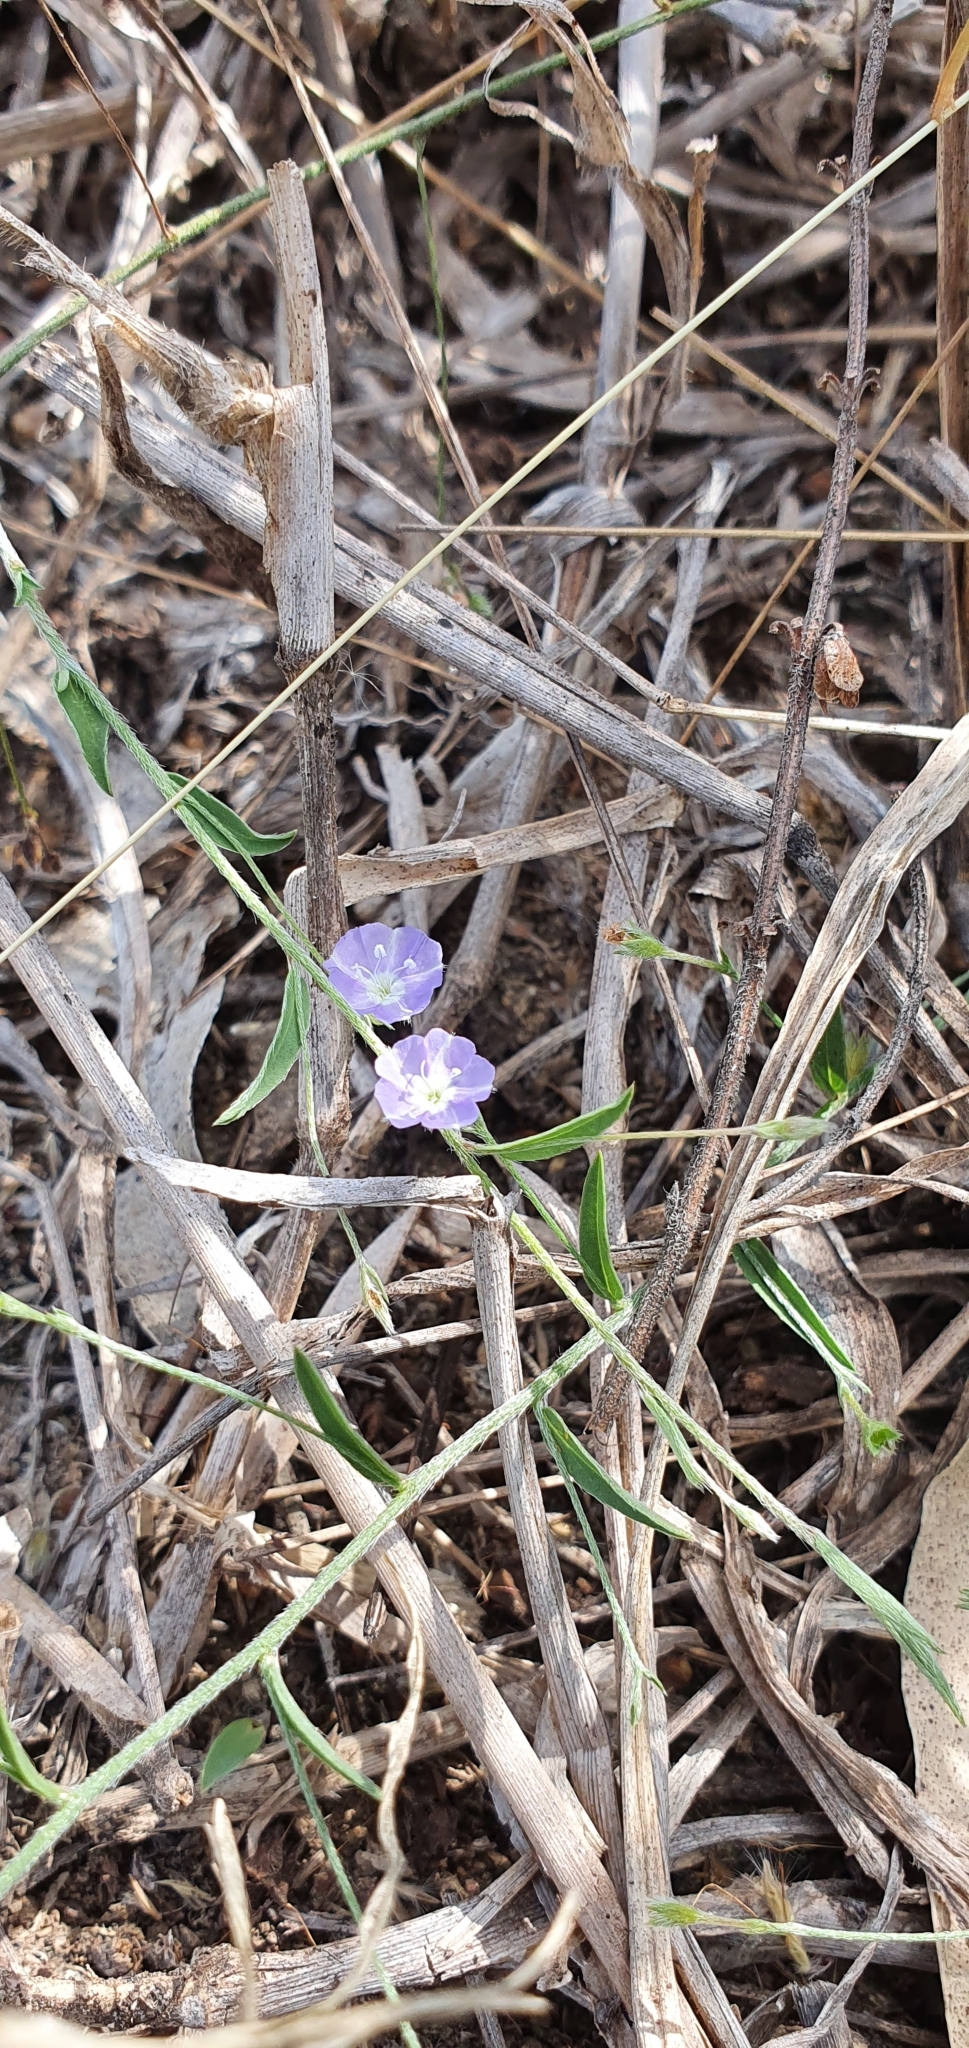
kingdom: Plantae
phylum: Tracheophyta
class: Magnoliopsida
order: Solanales
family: Convolvulaceae
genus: Evolvulus
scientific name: Evolvulus alsinoides
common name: Slender dwarf morning-glory
